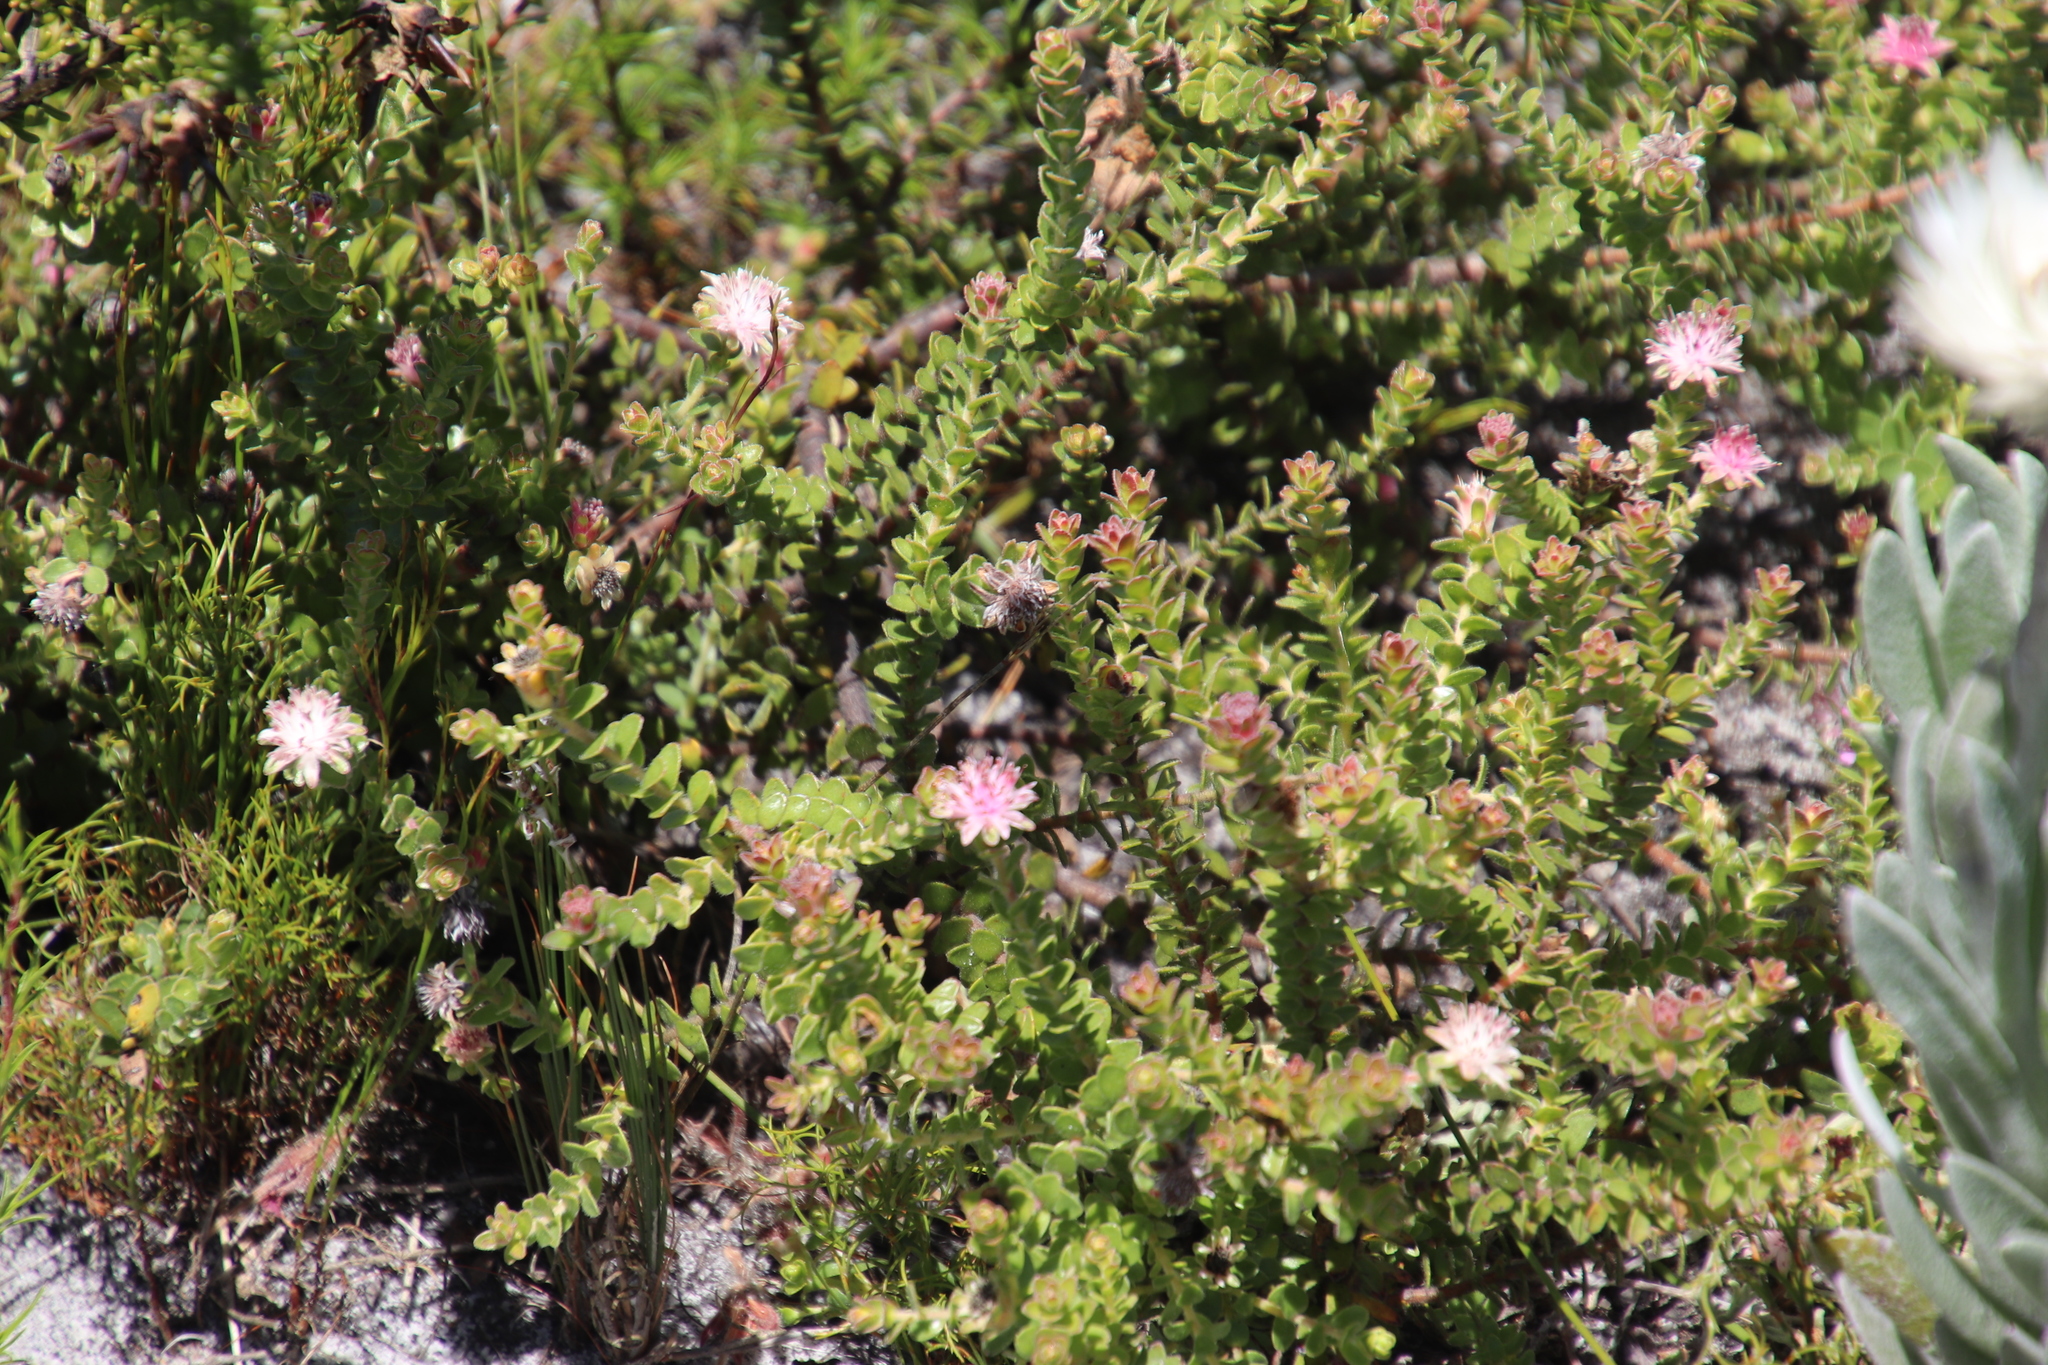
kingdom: Plantae
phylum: Tracheophyta
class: Magnoliopsida
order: Proteales
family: Proteaceae
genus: Diastella
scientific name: Diastella divaricata
